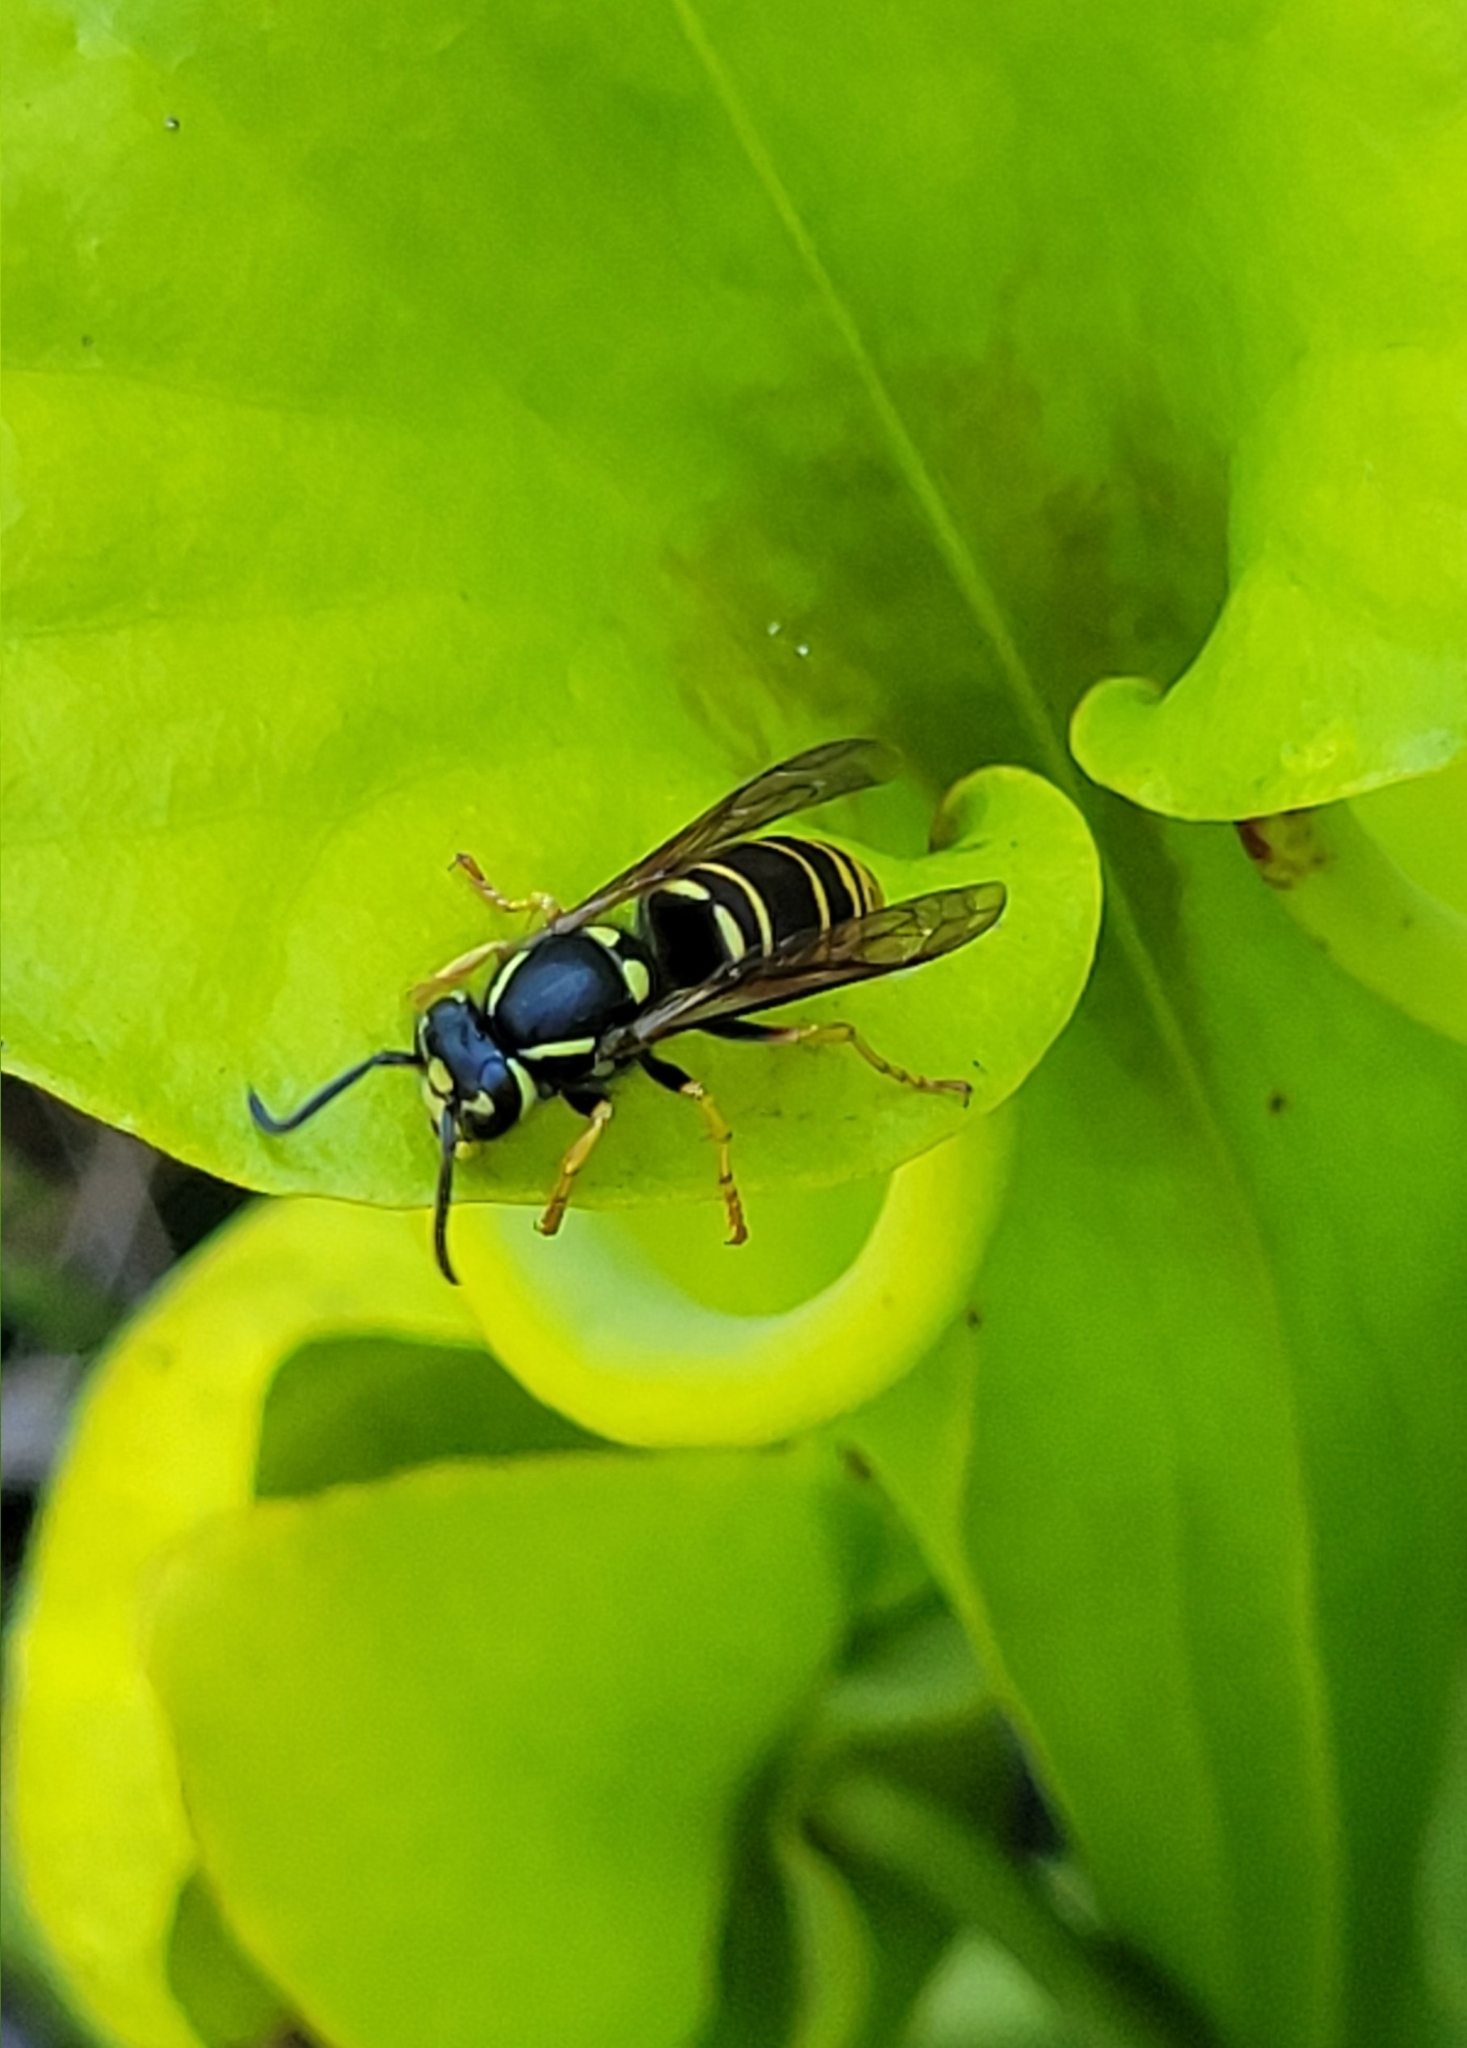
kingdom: Animalia
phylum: Arthropoda
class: Insecta
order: Hymenoptera
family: Vespidae
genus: Vespula
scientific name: Vespula vidua
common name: Widow yellowjacket
